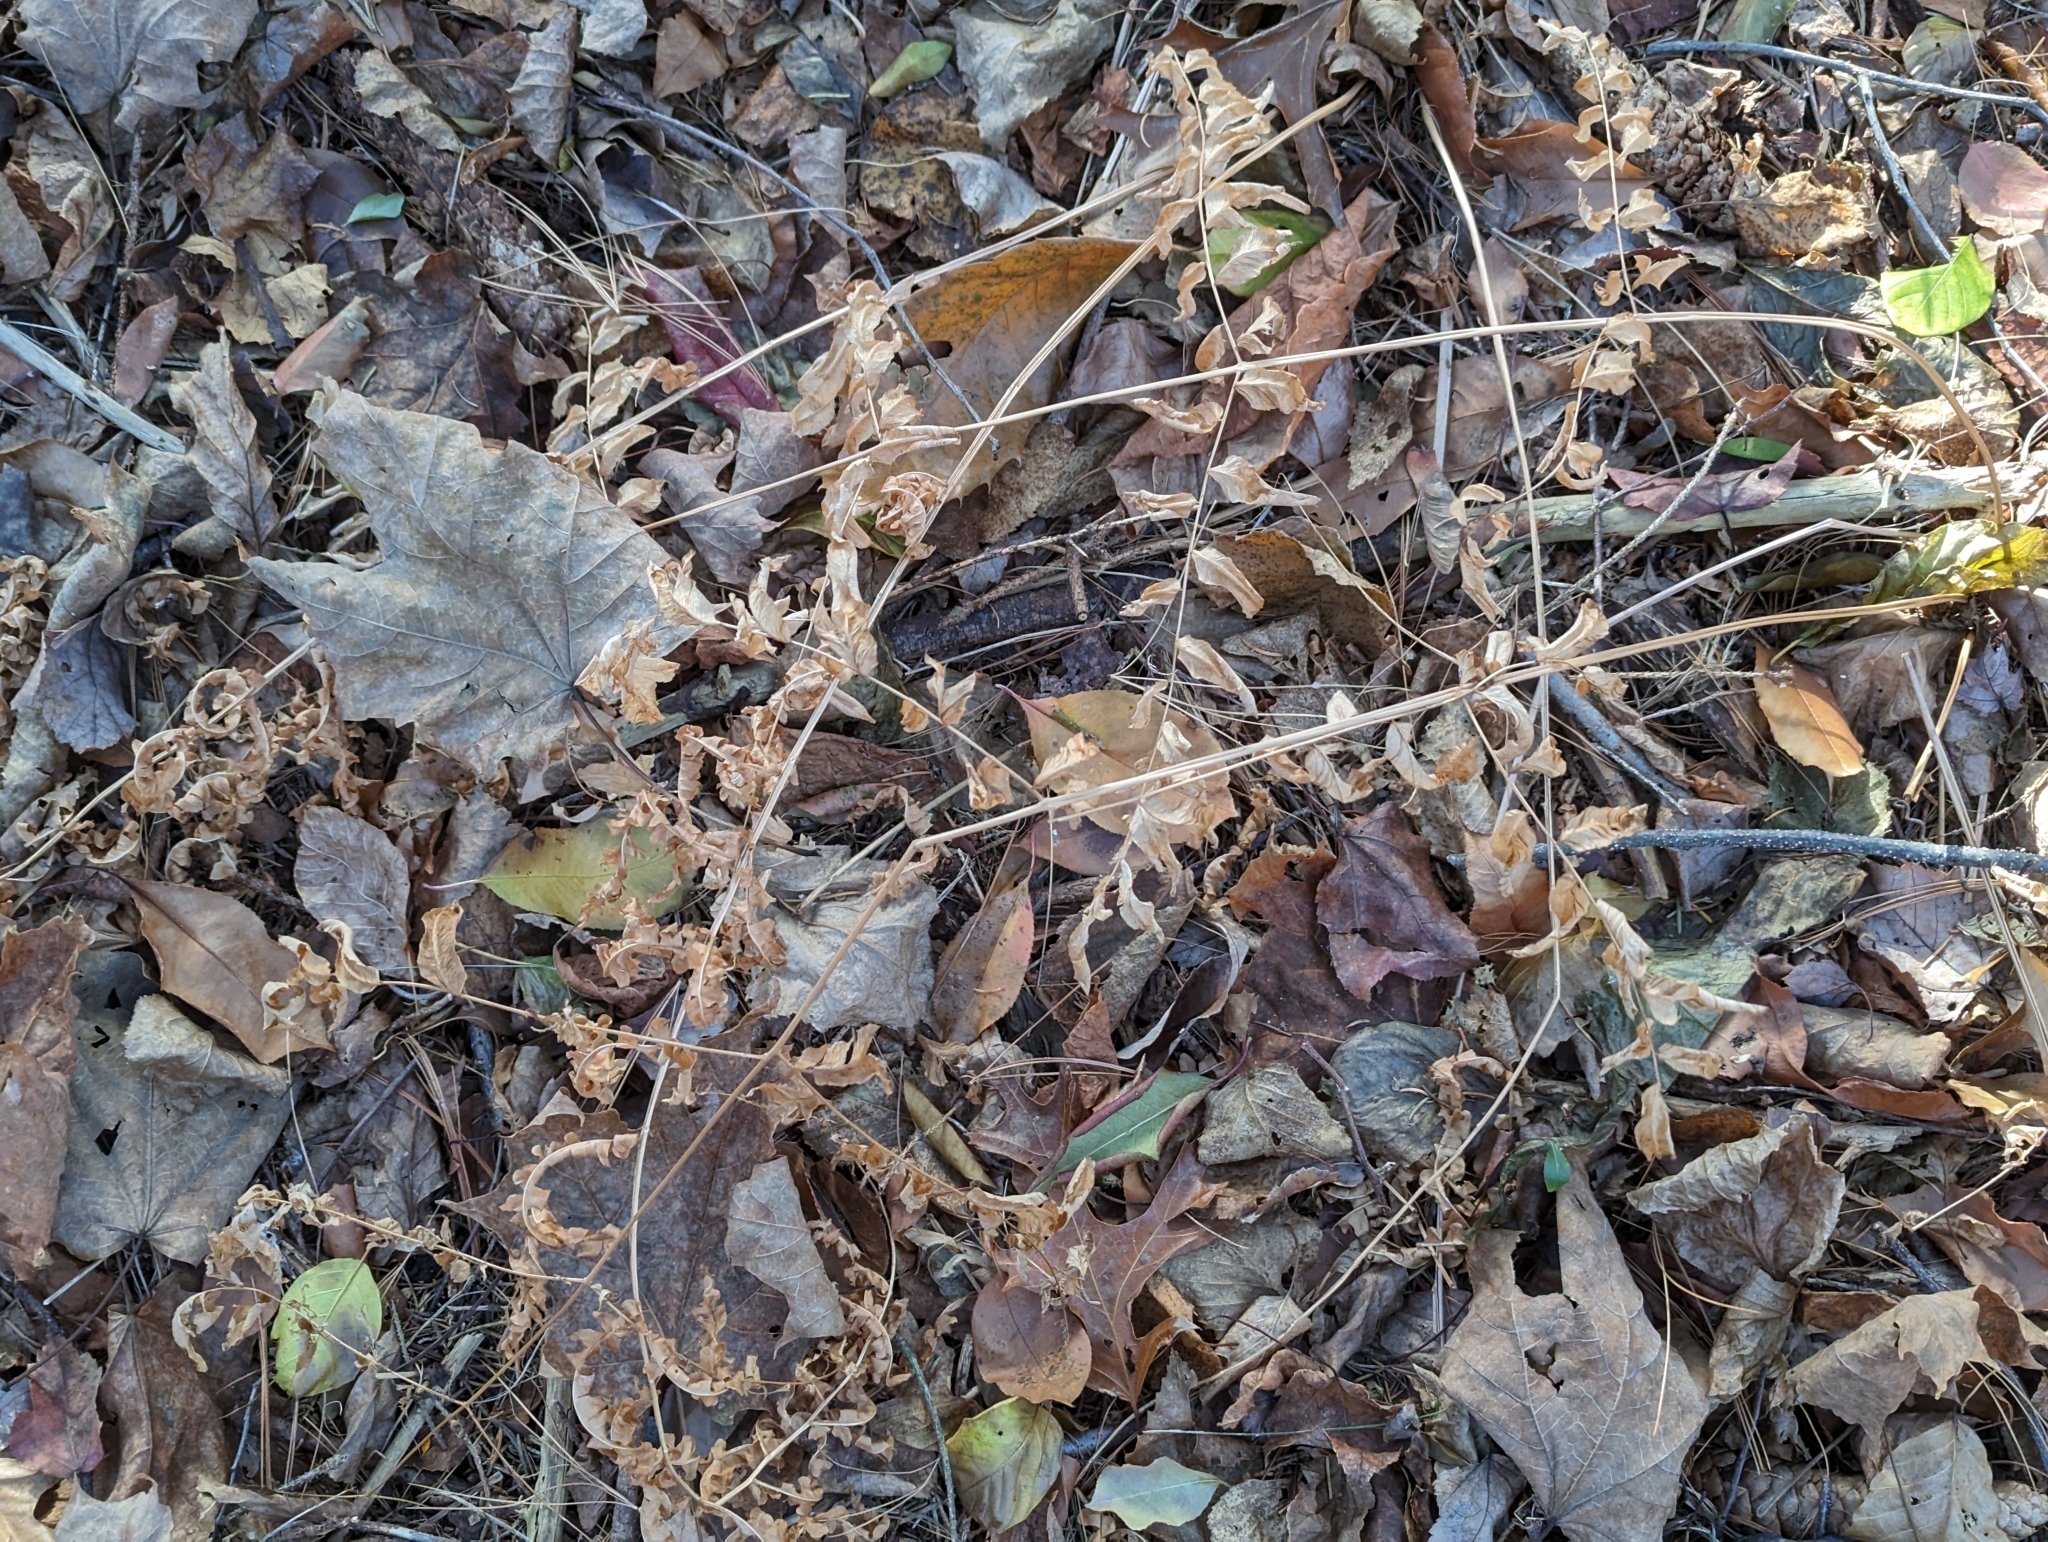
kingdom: Plantae
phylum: Tracheophyta
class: Polypodiopsida
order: Osmundales
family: Osmundaceae
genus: Osmunda
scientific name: Osmunda spectabilis
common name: American royal fern
